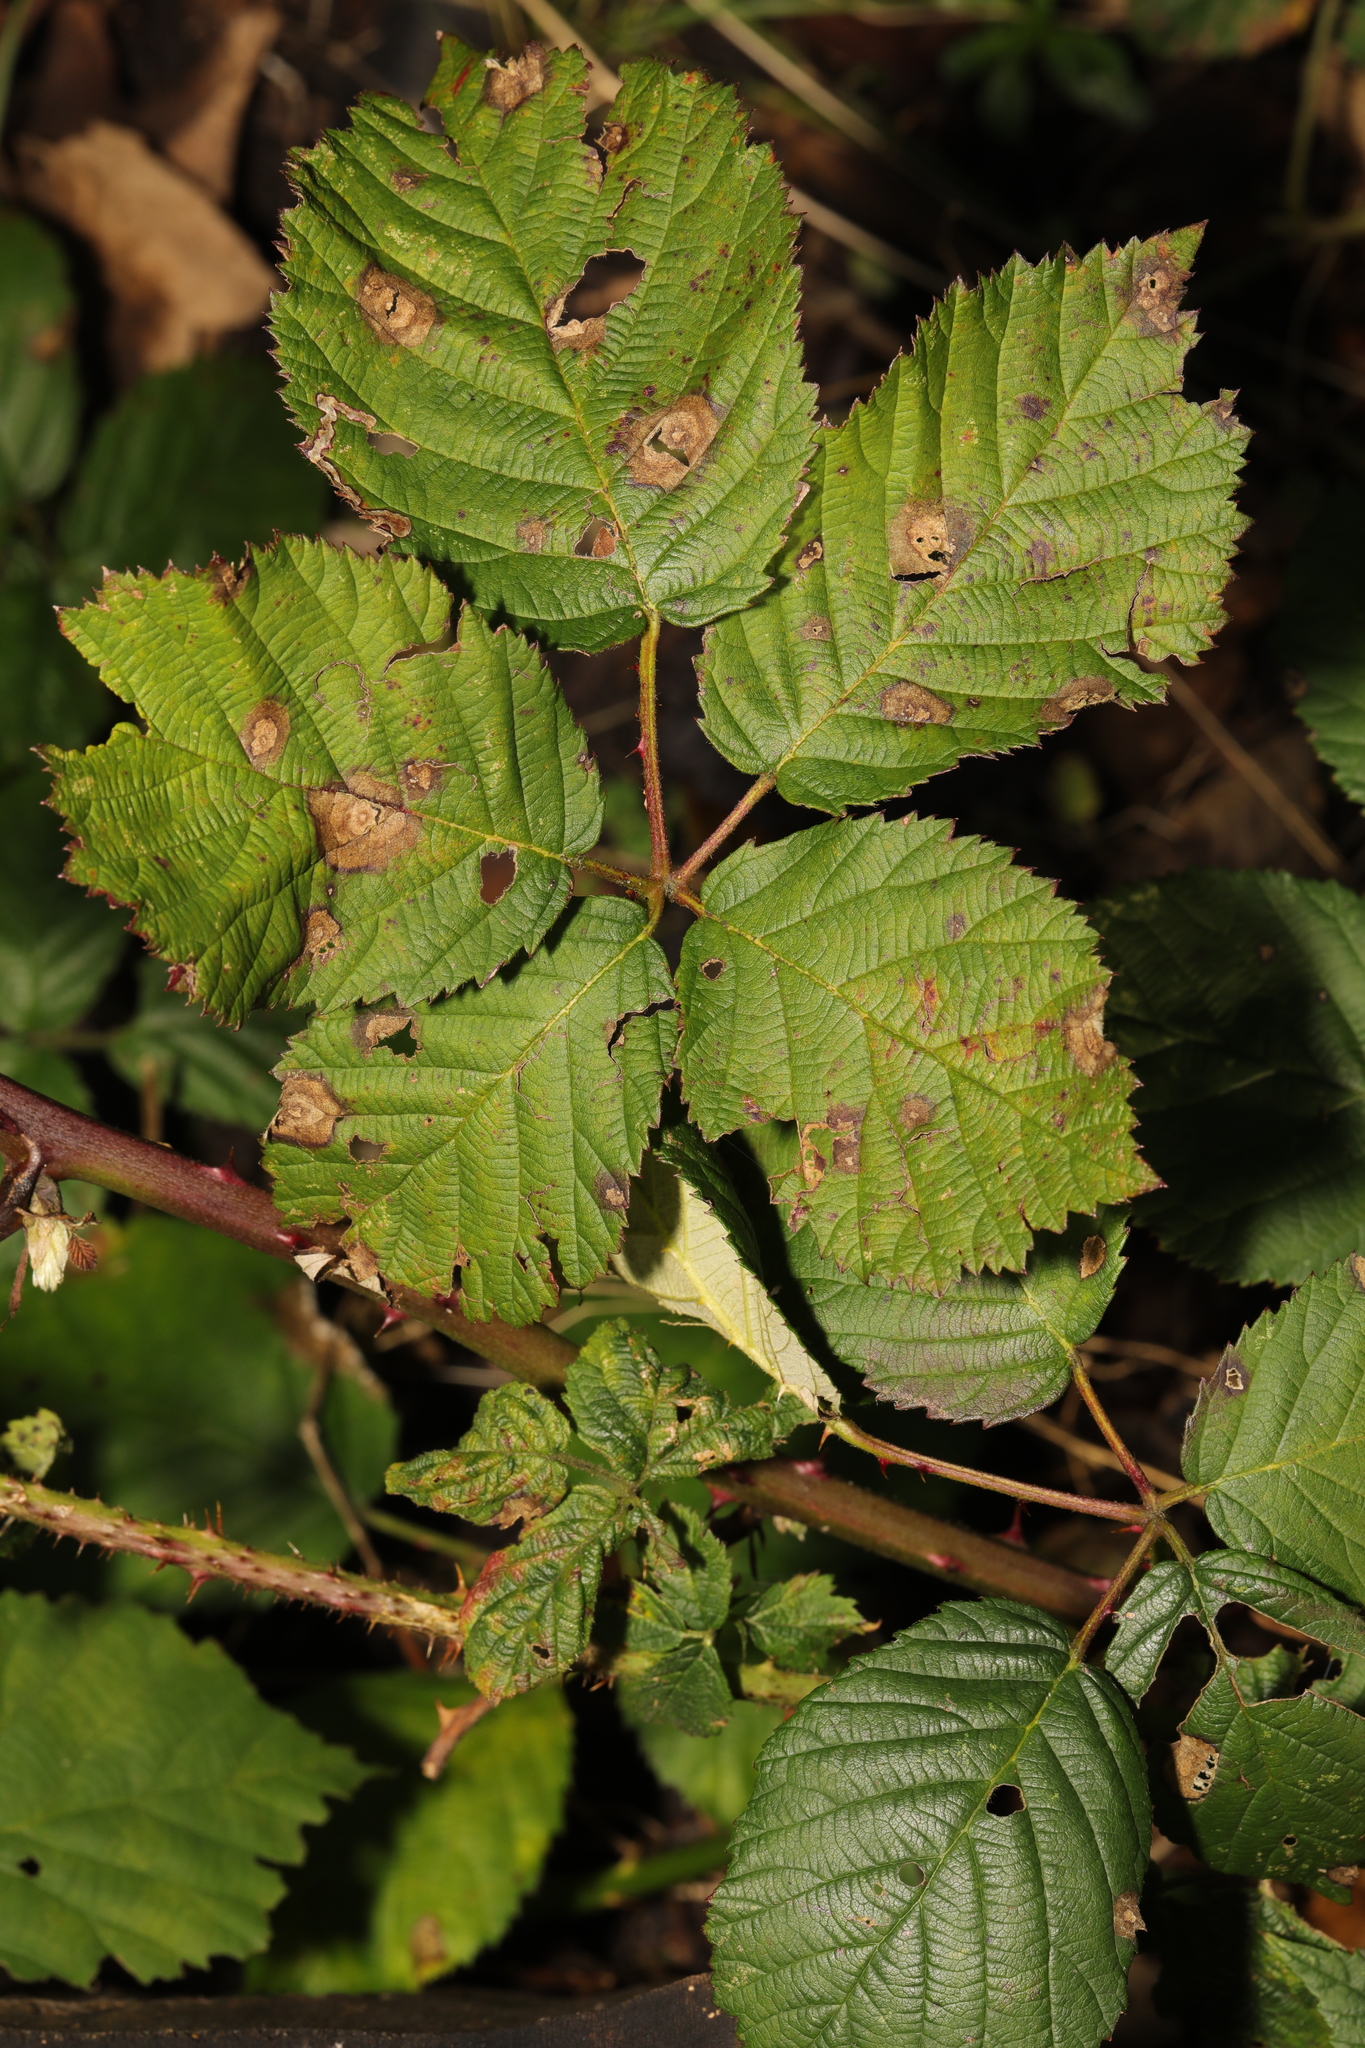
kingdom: Plantae
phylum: Tracheophyta
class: Magnoliopsida
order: Rosales
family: Rosaceae
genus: Rubus
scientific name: Rubus armeniacus
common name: Himalayan blackberry
